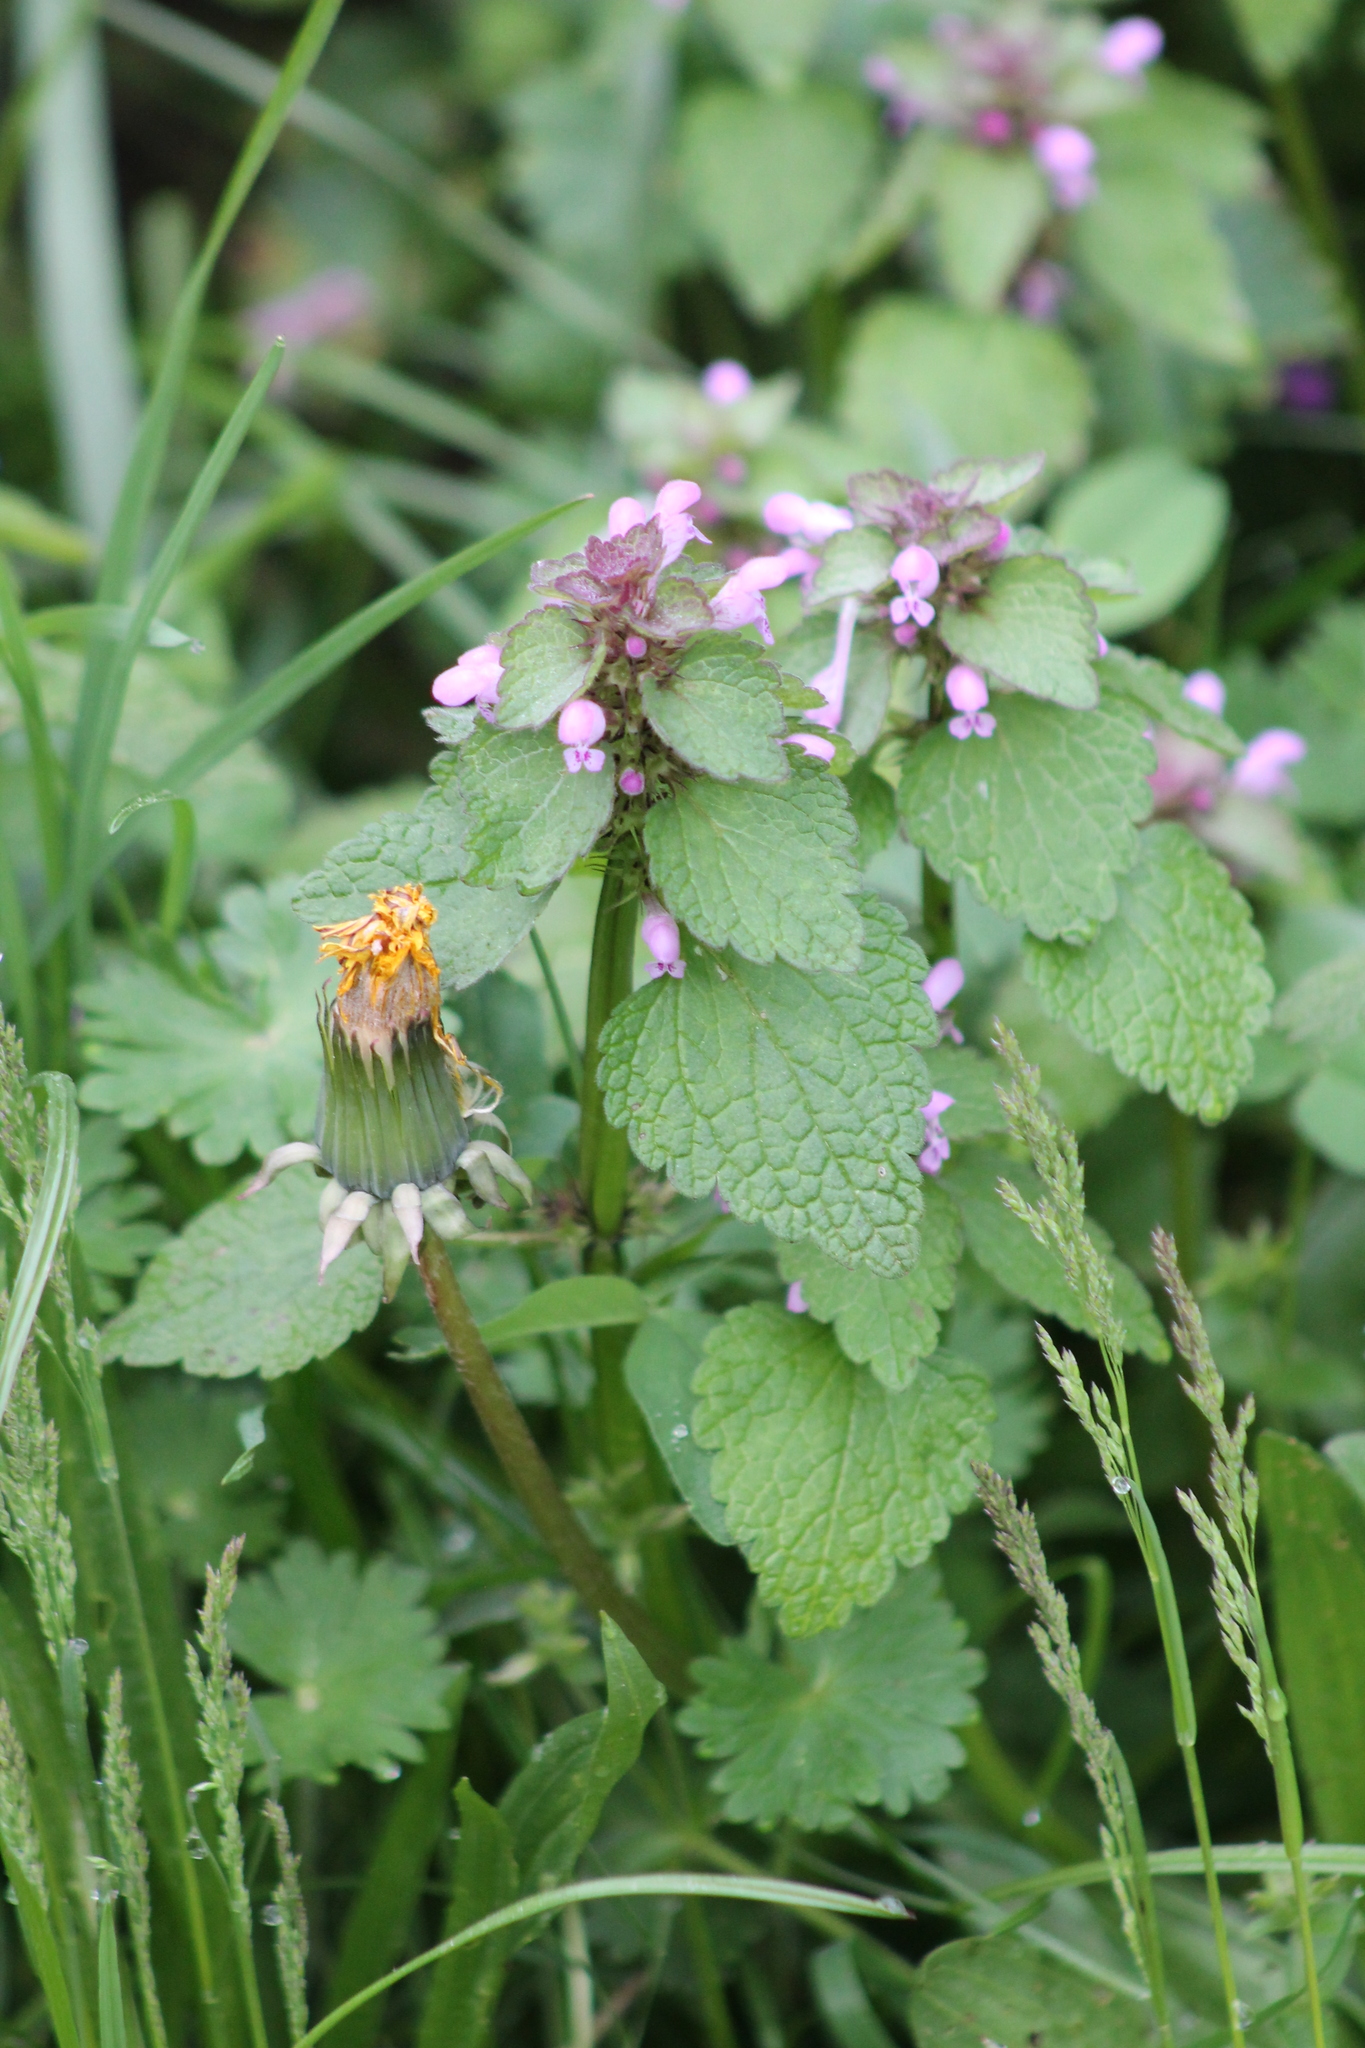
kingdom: Plantae
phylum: Tracheophyta
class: Magnoliopsida
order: Lamiales
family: Lamiaceae
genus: Lamium
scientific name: Lamium purpureum
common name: Red dead-nettle
